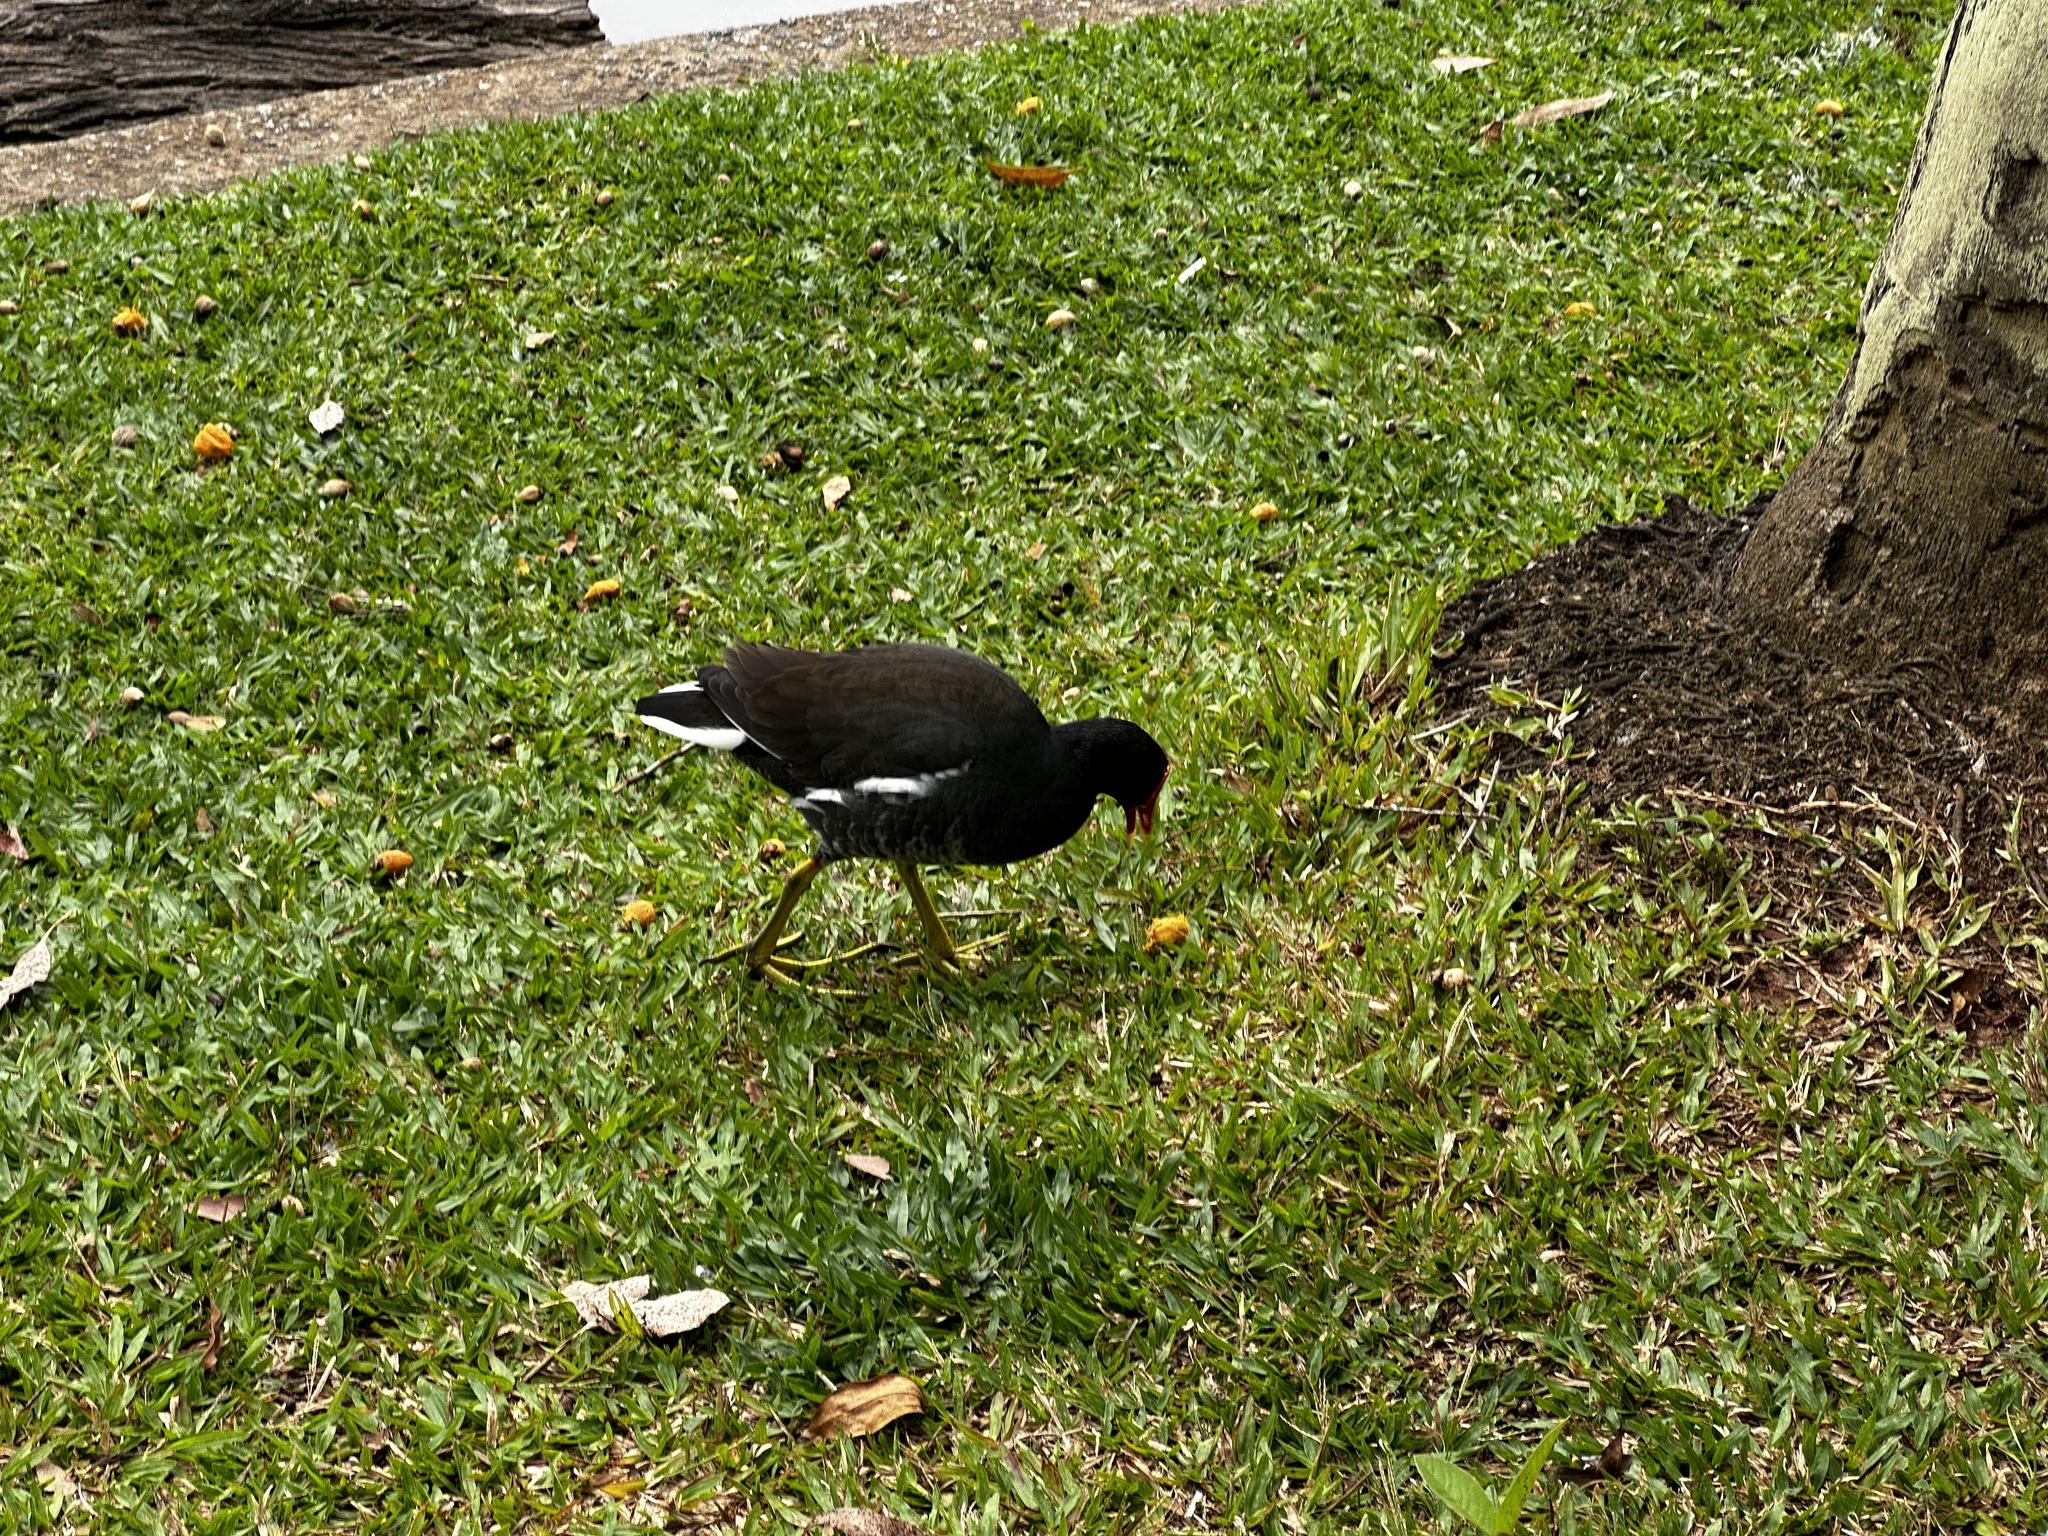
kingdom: Animalia
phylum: Chordata
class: Aves
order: Gruiformes
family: Rallidae
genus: Gallinula
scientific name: Gallinula chloropus
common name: Common moorhen
